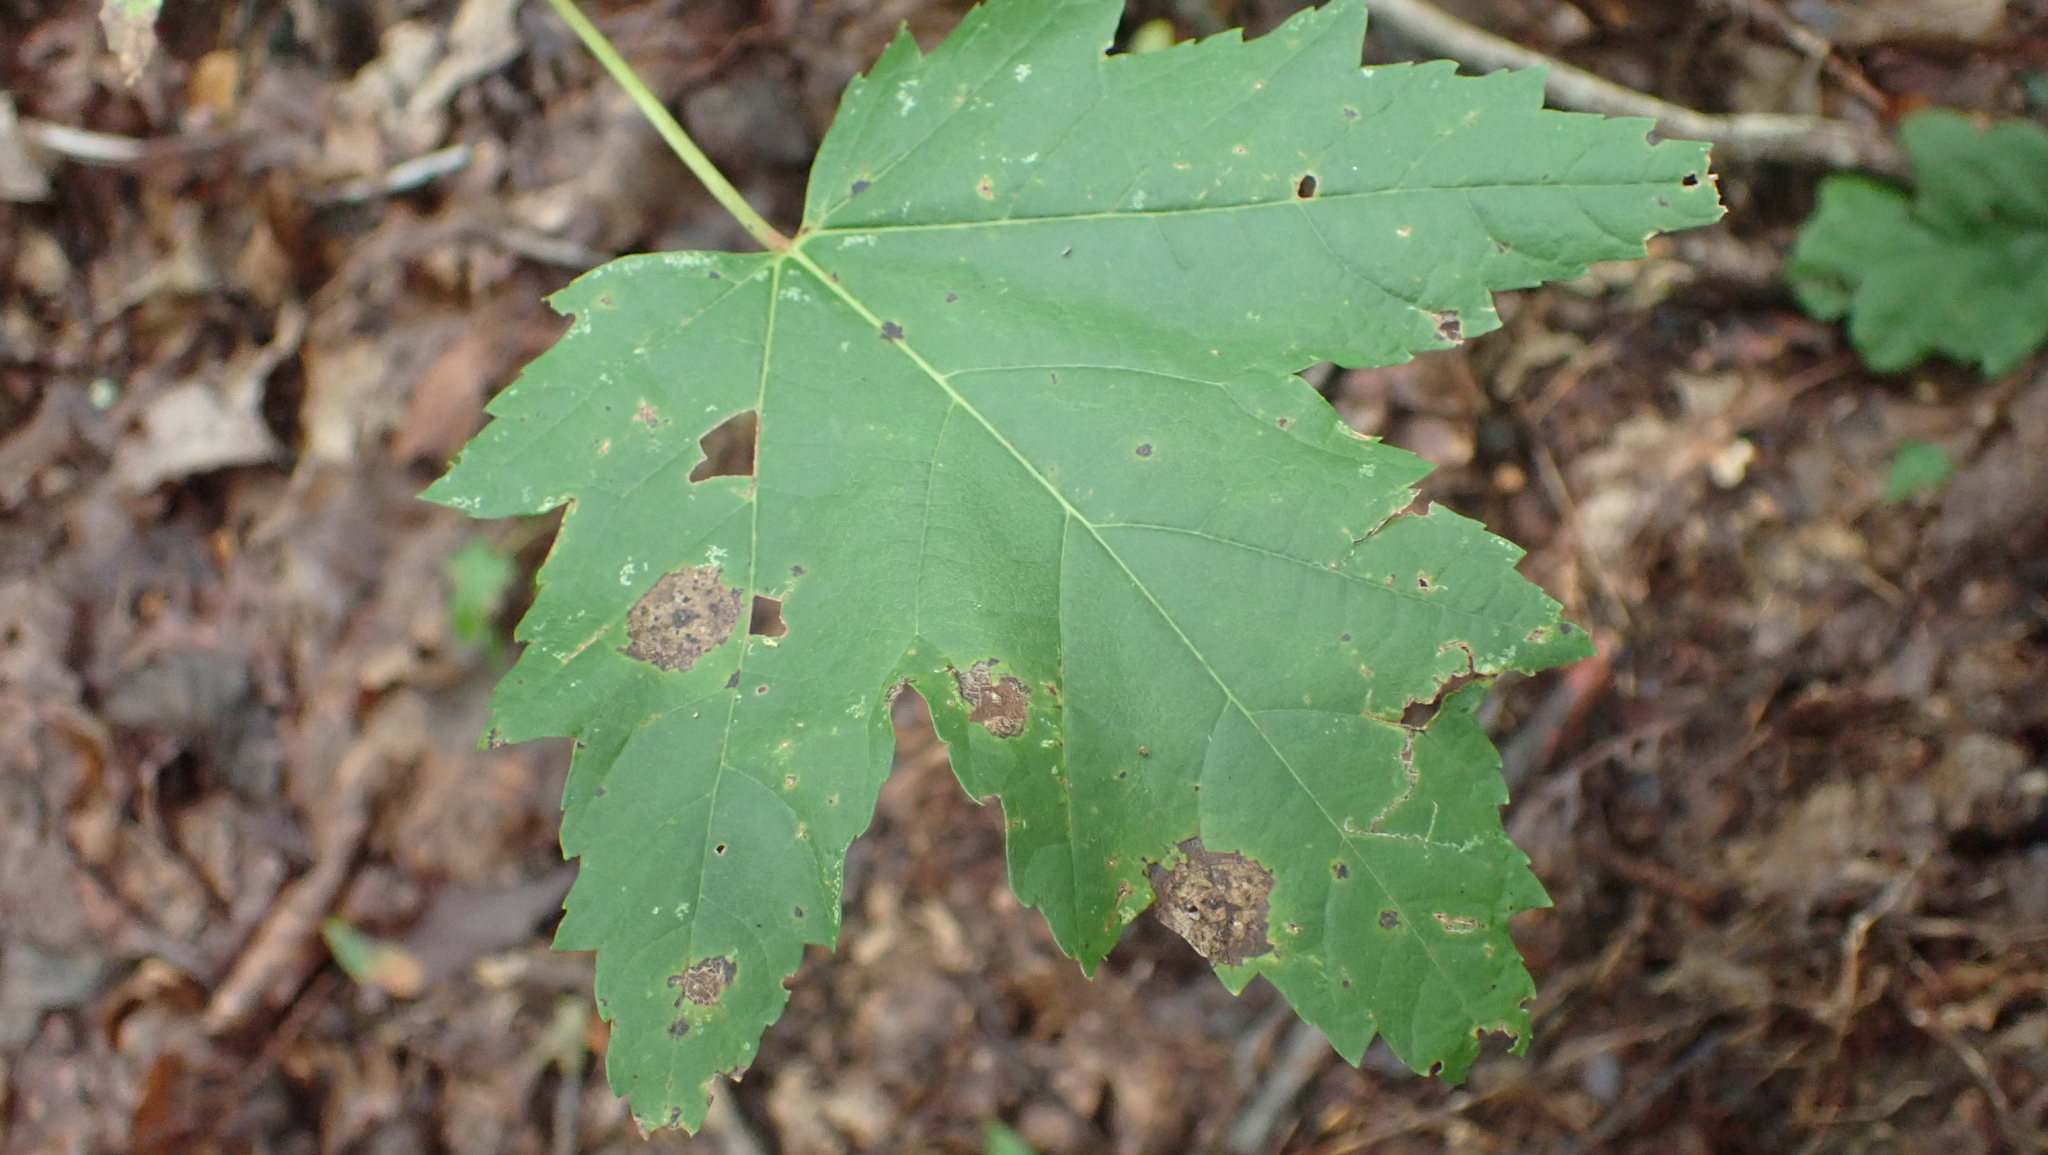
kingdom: Plantae
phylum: Tracheophyta
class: Magnoliopsida
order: Sapindales
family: Sapindaceae
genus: Acer
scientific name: Acer rubrum
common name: Red maple
